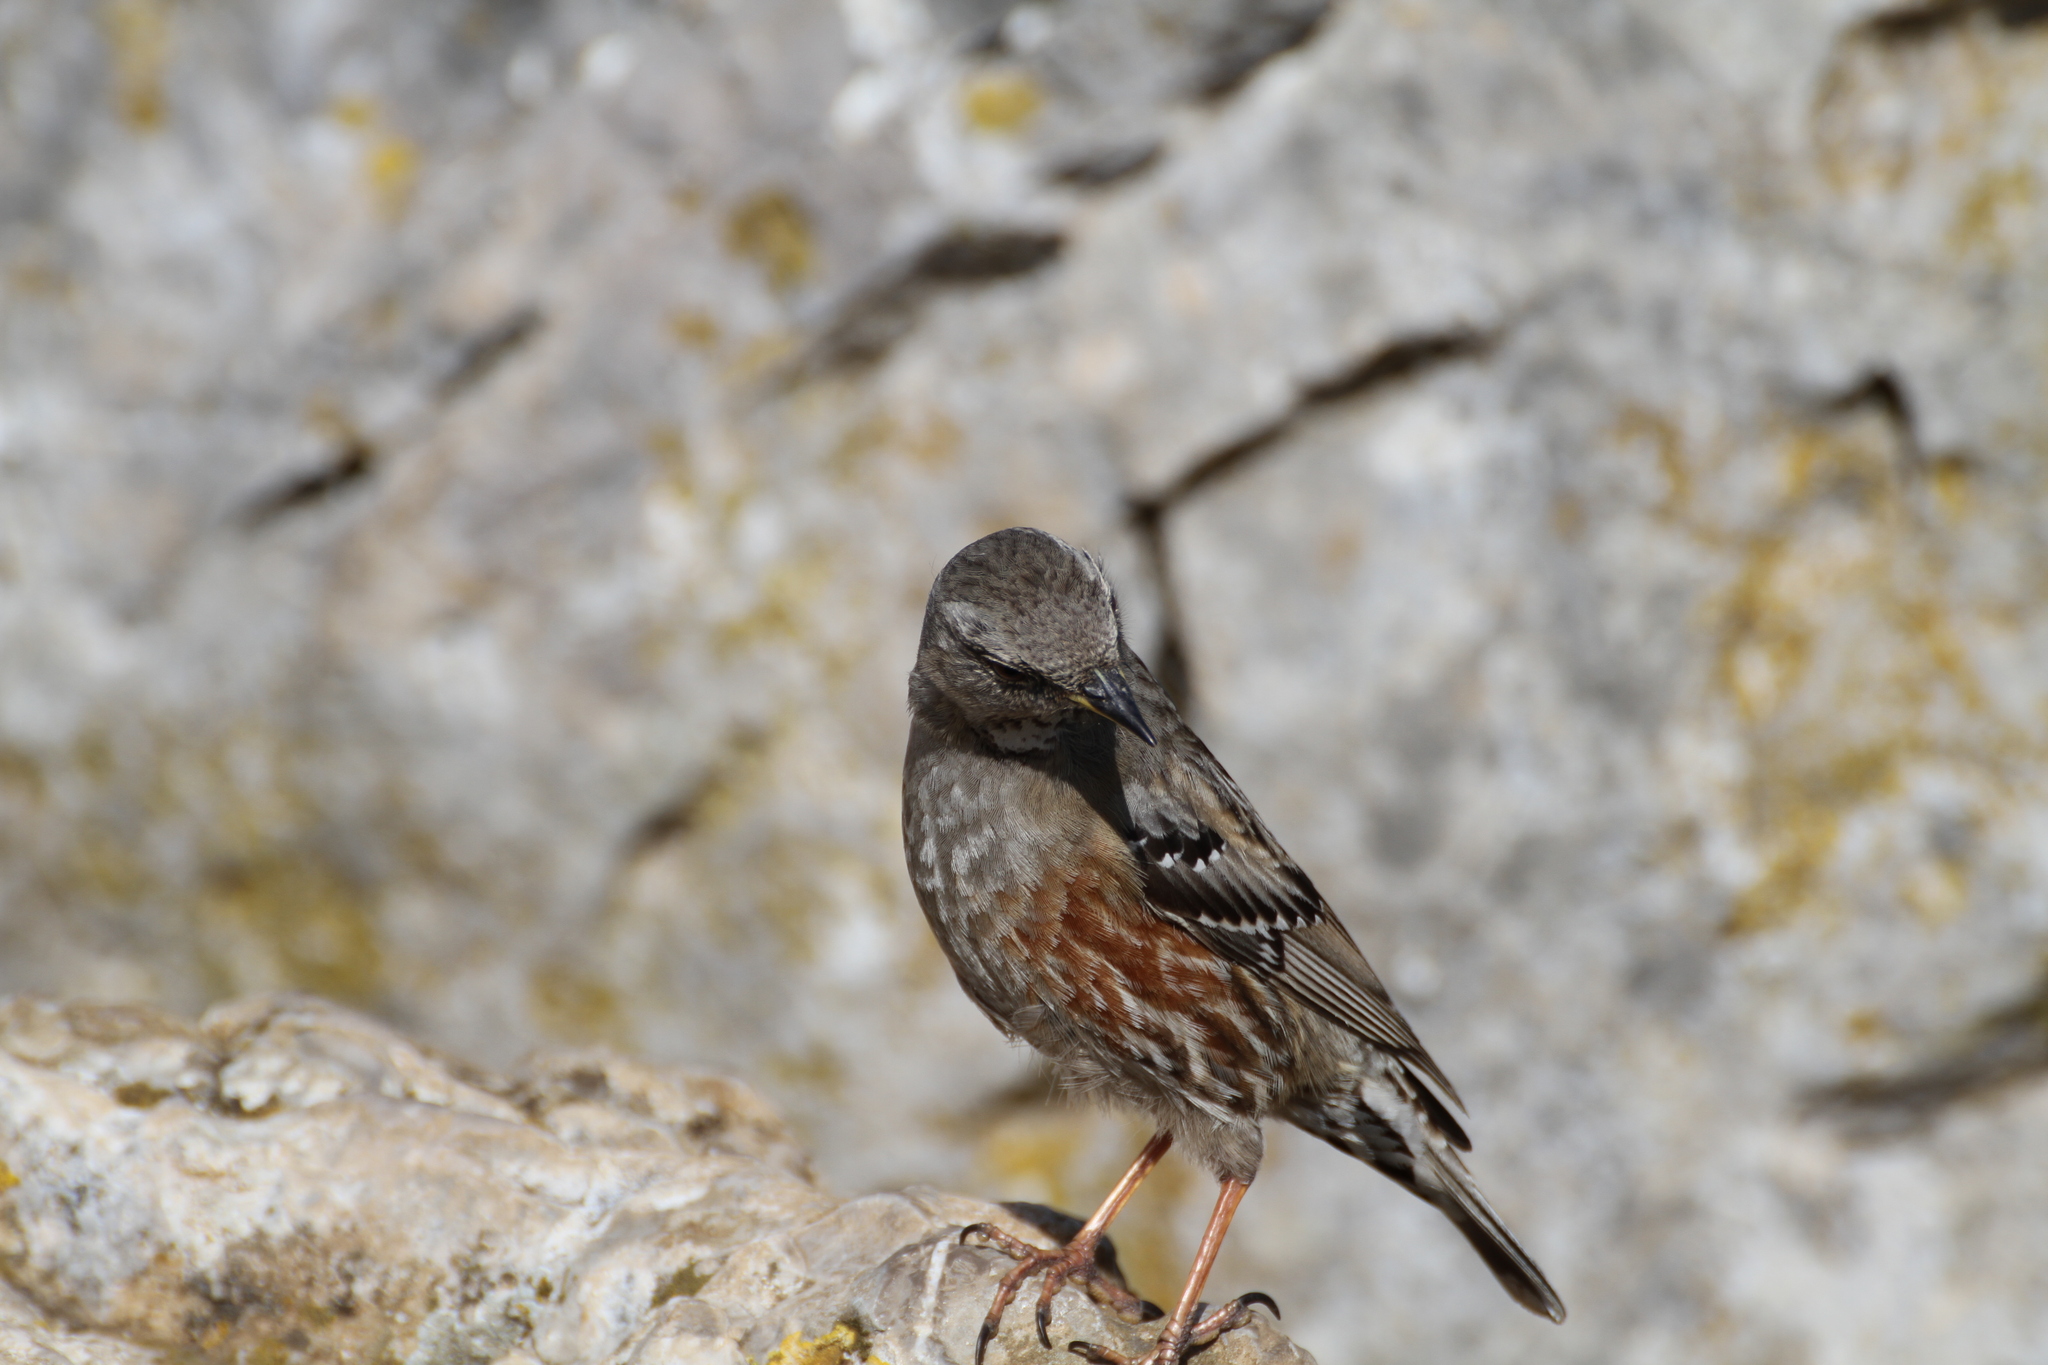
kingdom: Animalia
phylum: Chordata
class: Aves
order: Passeriformes
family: Prunellidae
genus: Prunella
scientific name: Prunella collaris
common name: Alpine accentor
